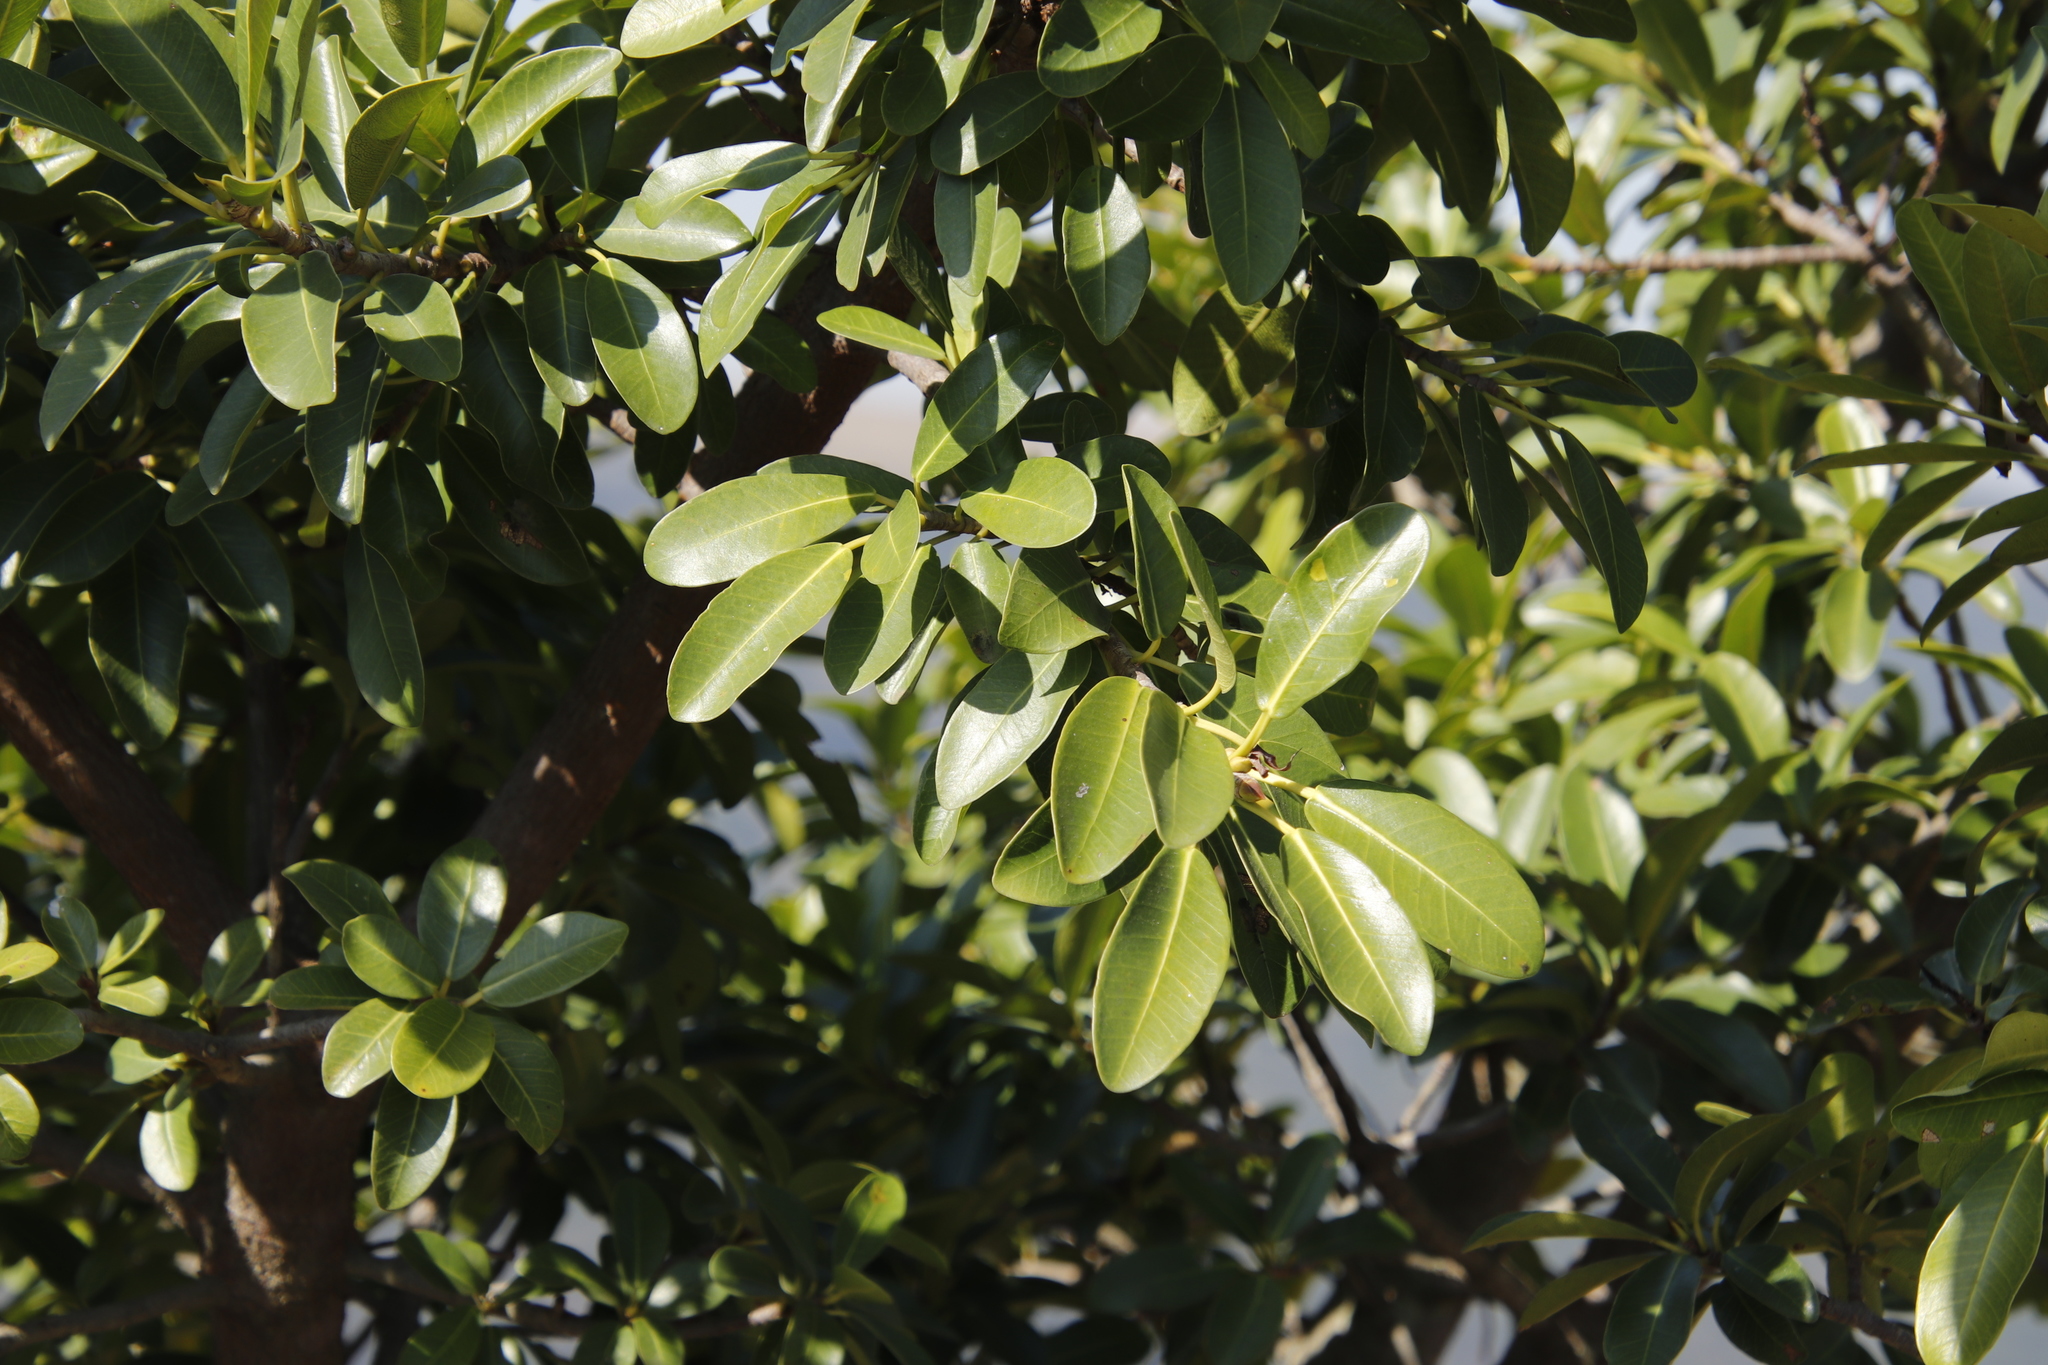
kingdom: Plantae
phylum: Tracheophyta
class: Magnoliopsida
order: Rosales
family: Moraceae
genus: Ficus
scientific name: Ficus thonningii
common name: Fig
